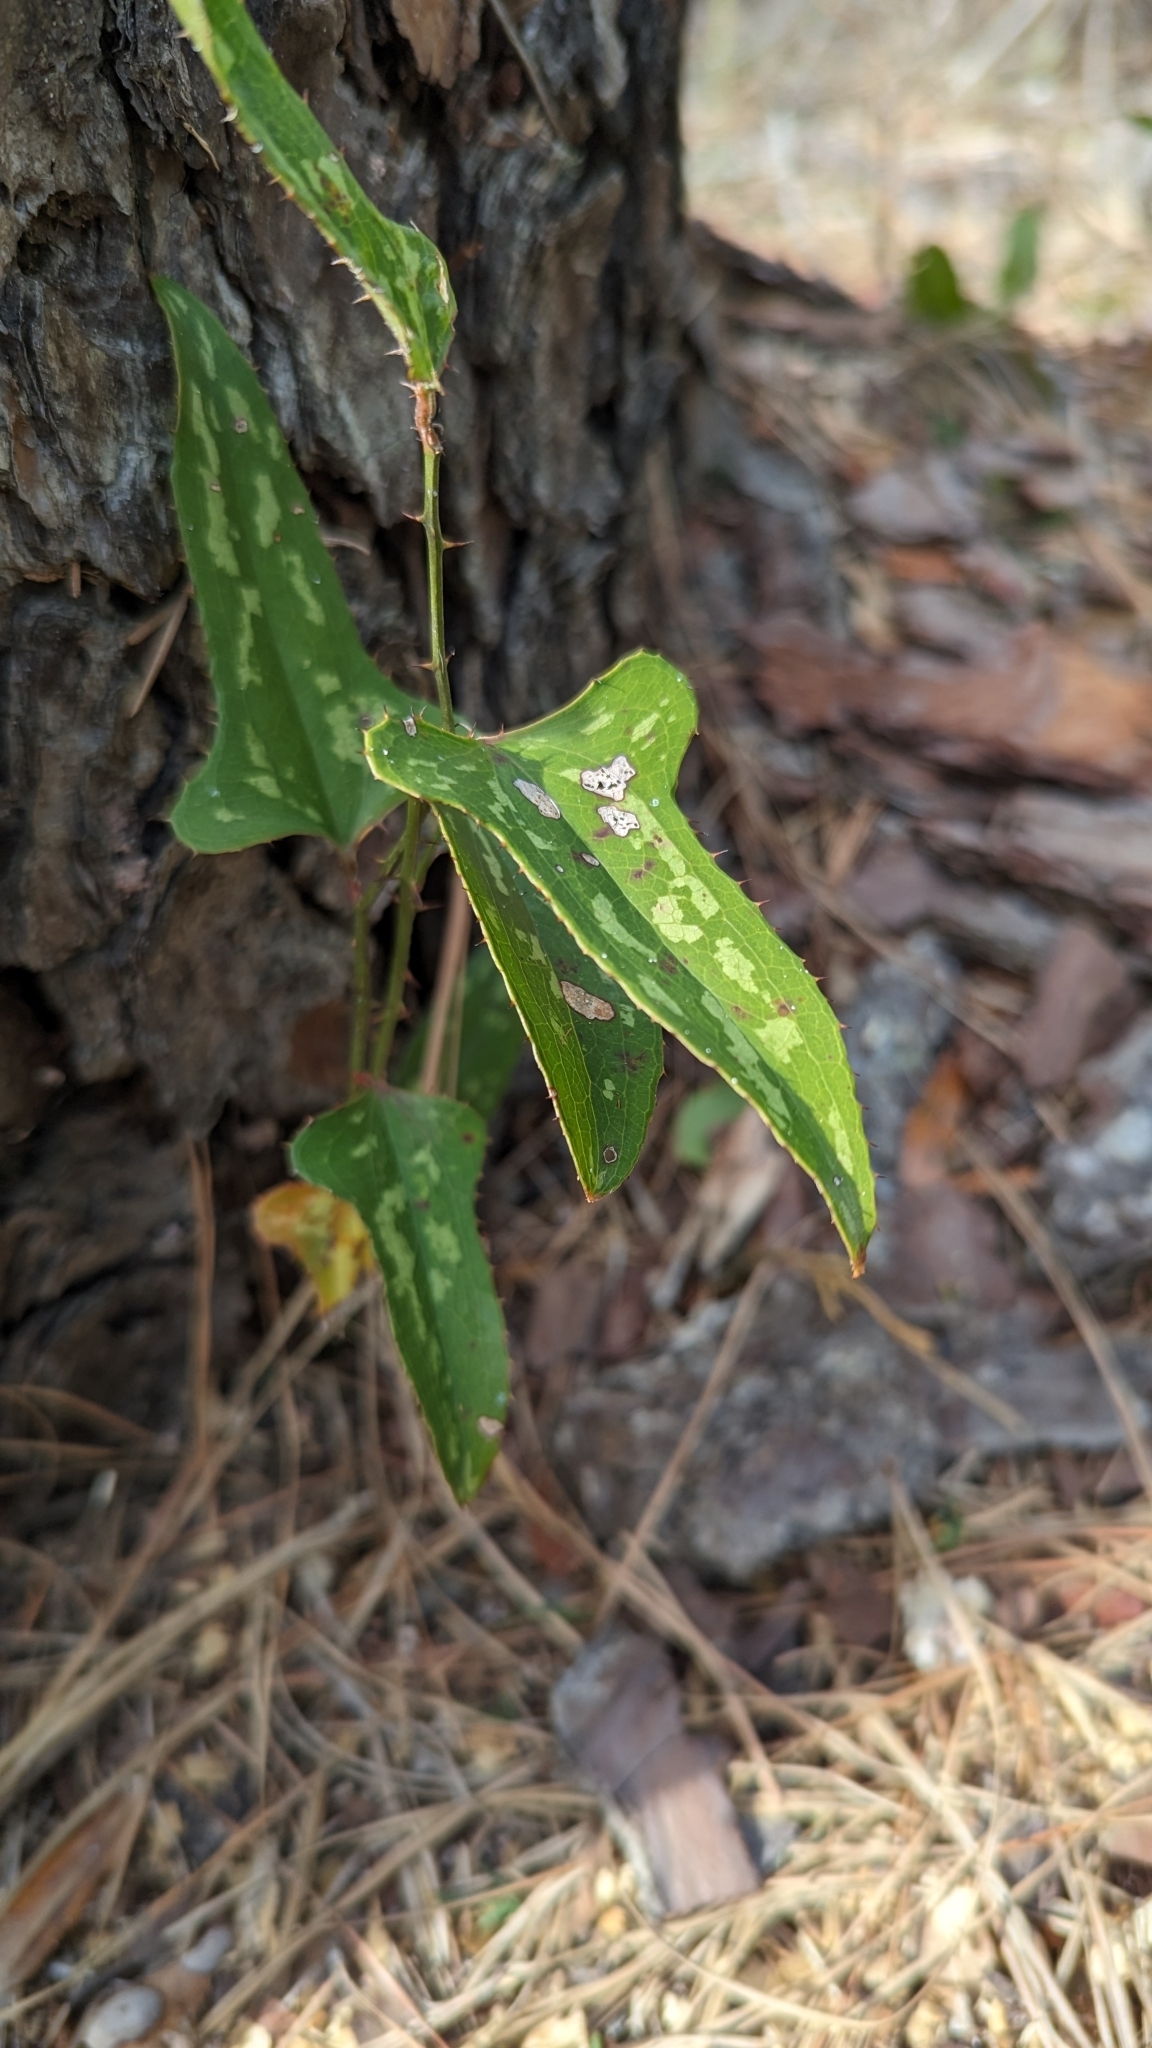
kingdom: Plantae
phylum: Tracheophyta
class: Liliopsida
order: Liliales
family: Smilacaceae
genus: Smilax
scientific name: Smilax bona-nox
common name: Catbrier
